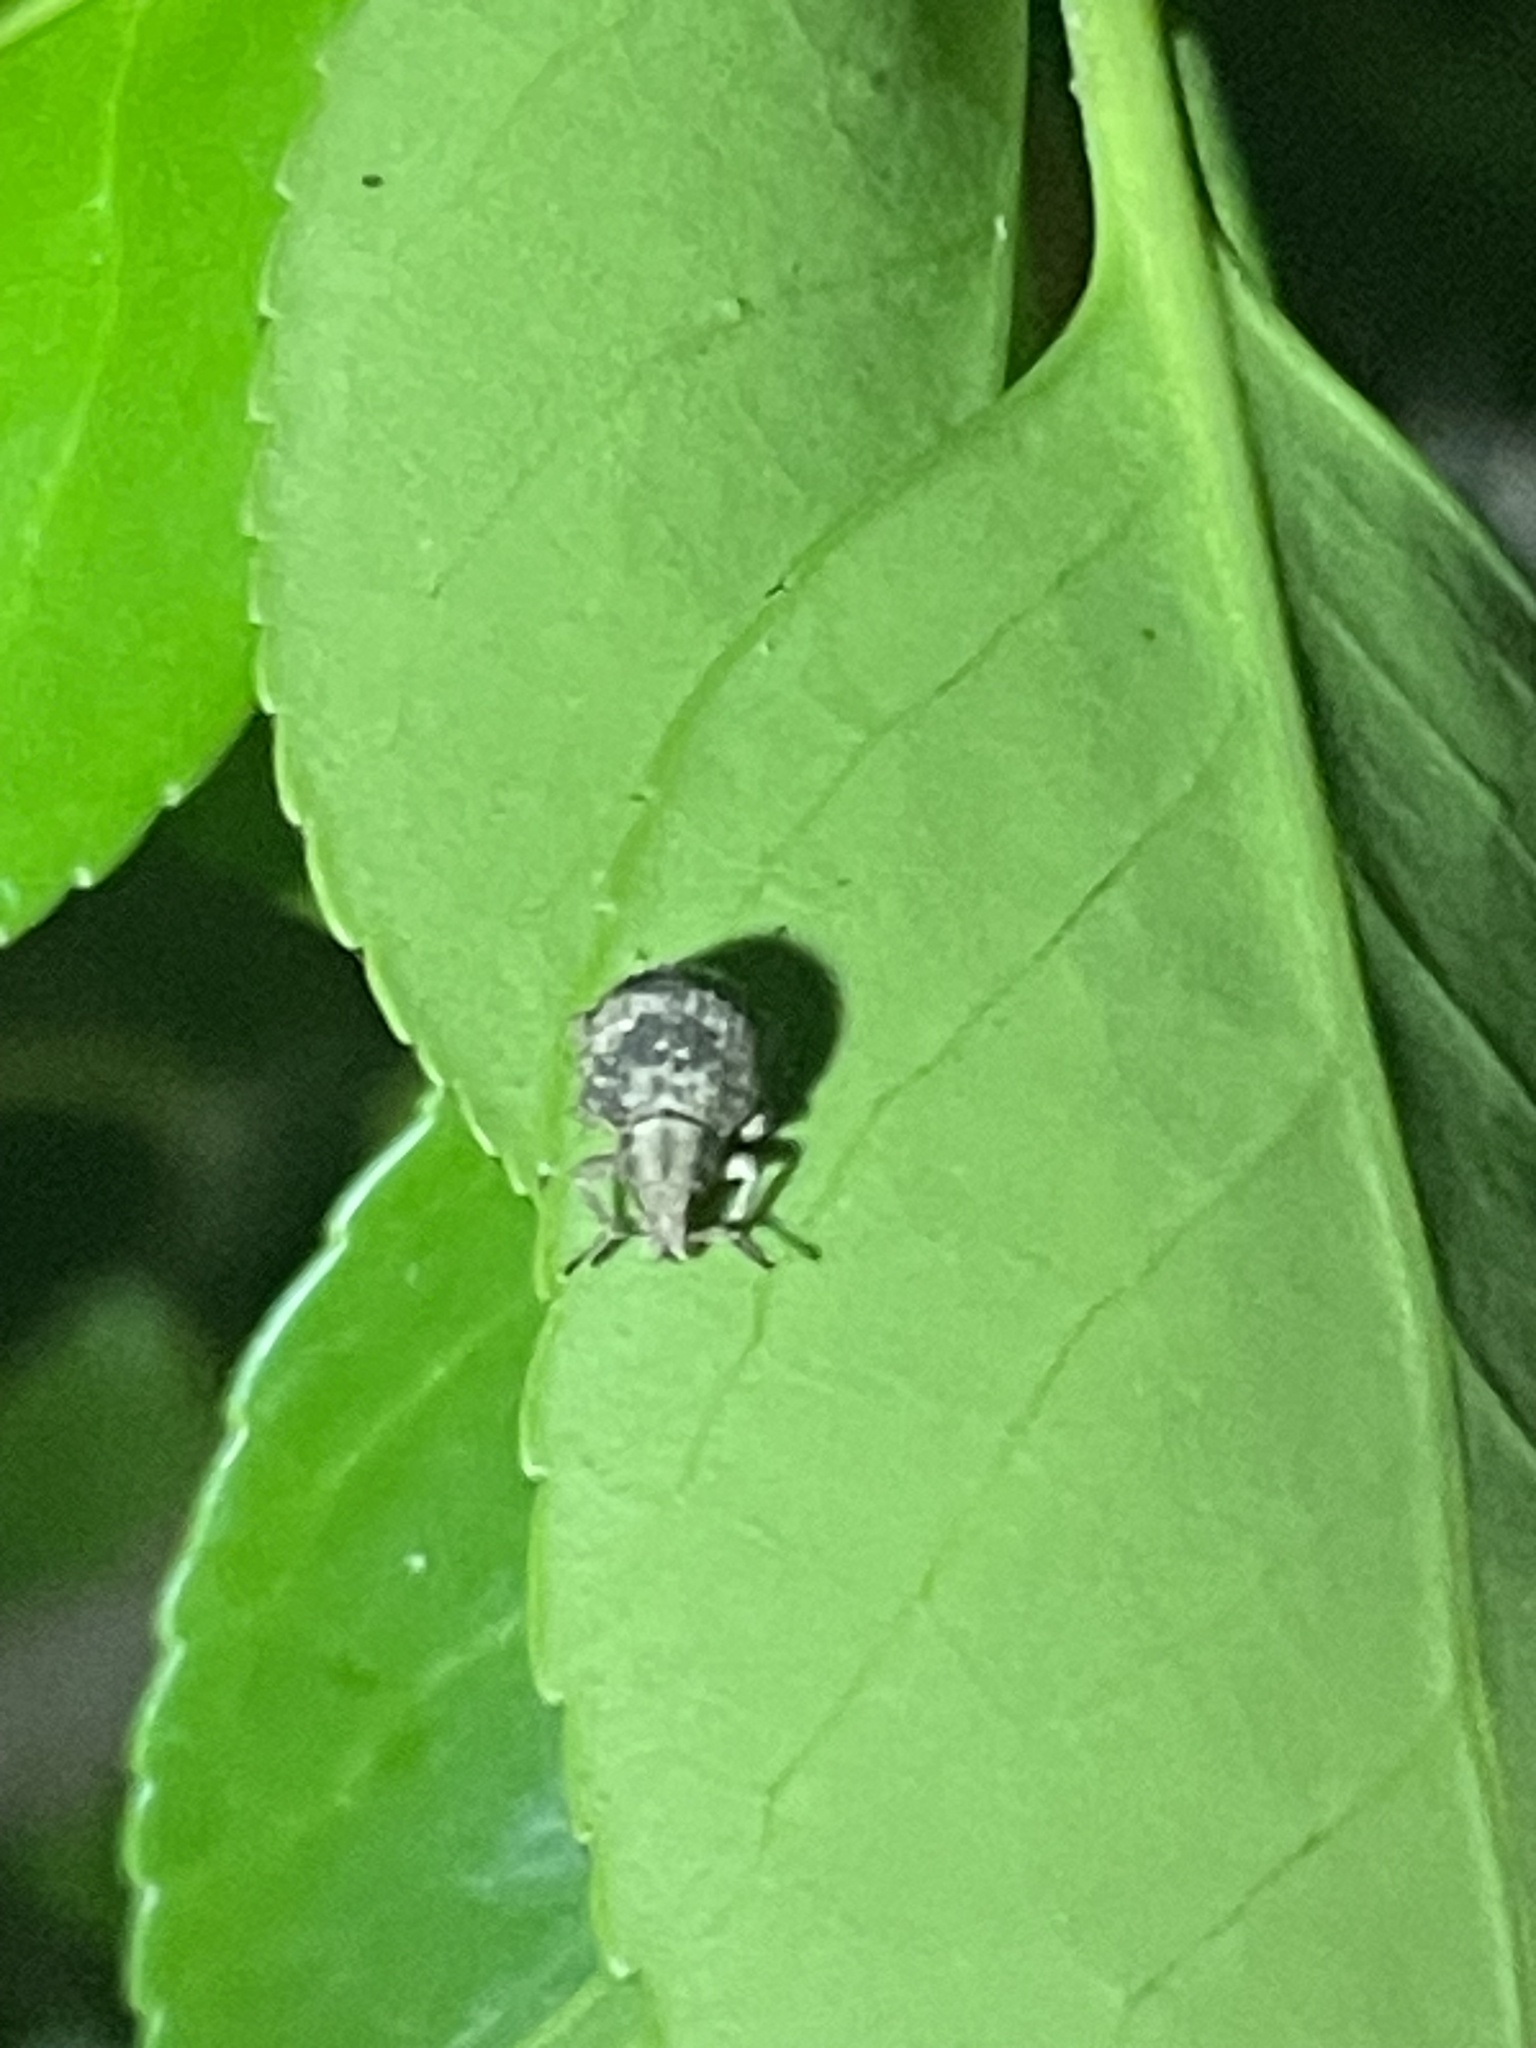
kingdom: Animalia
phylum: Arthropoda
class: Insecta
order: Coleoptera
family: Curculionidae
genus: Pseudocneorhinus
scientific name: Pseudocneorhinus bifasciatus
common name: Two-banded japanese weevil
